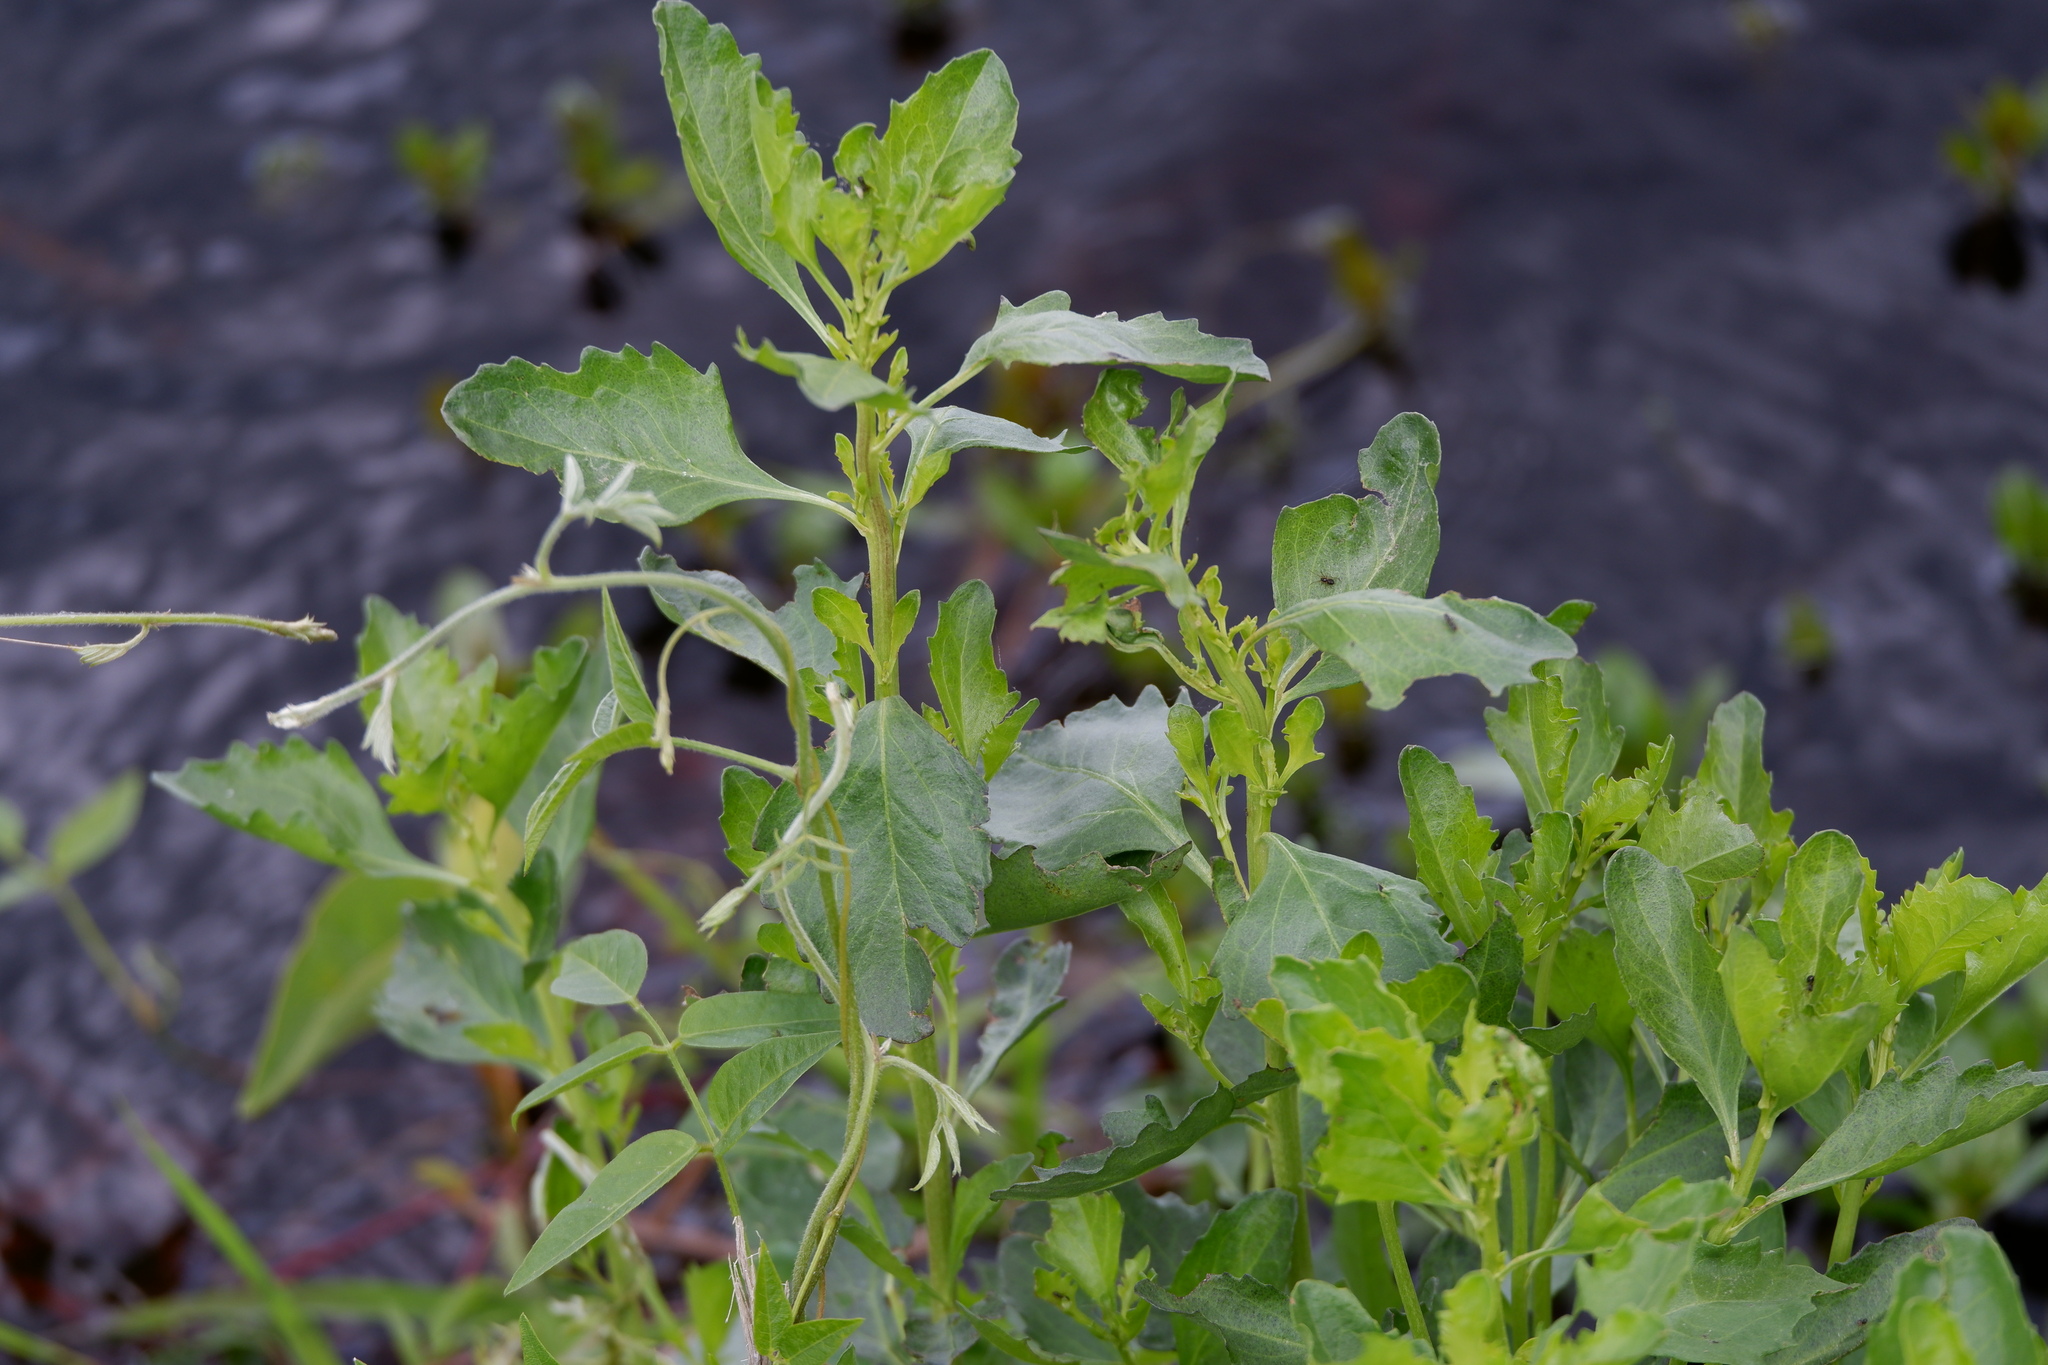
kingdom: Plantae
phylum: Tracheophyta
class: Magnoliopsida
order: Asterales
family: Asteraceae
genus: Baccharis
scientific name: Baccharis halimifolia
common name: Eastern baccharis
